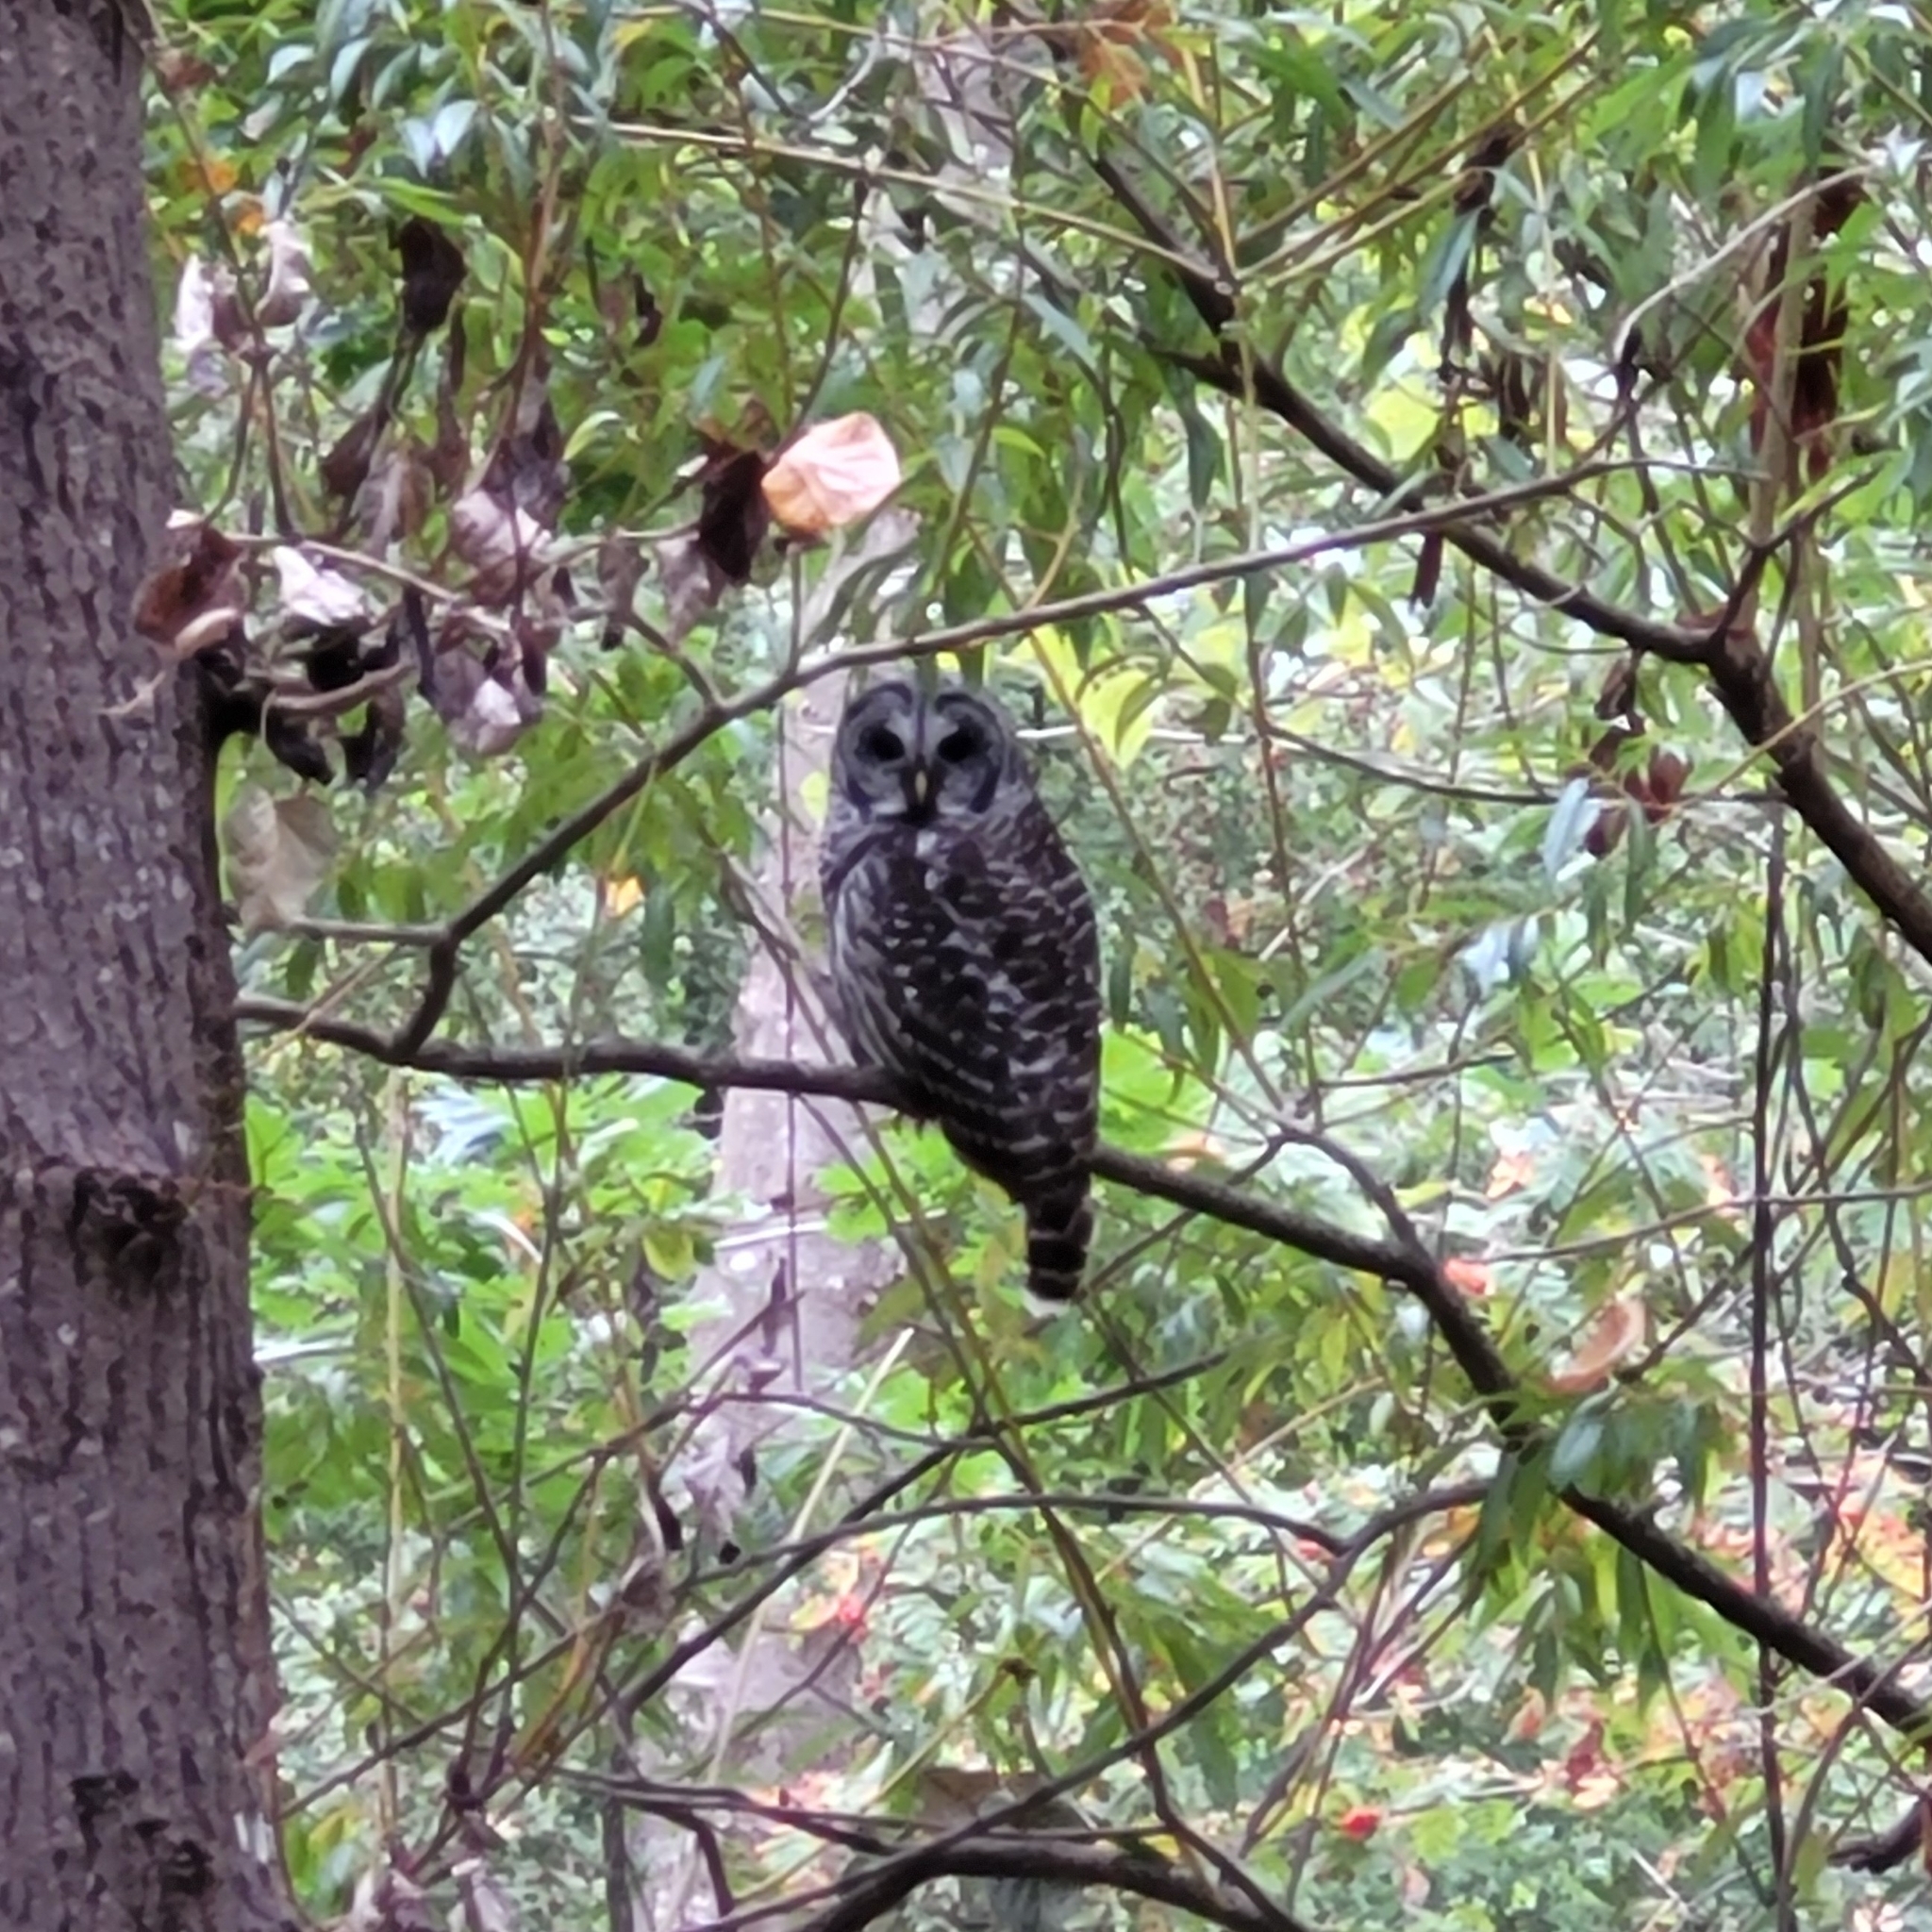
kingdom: Animalia
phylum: Chordata
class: Aves
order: Strigiformes
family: Strigidae
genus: Strix
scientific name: Strix varia
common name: Barred owl
